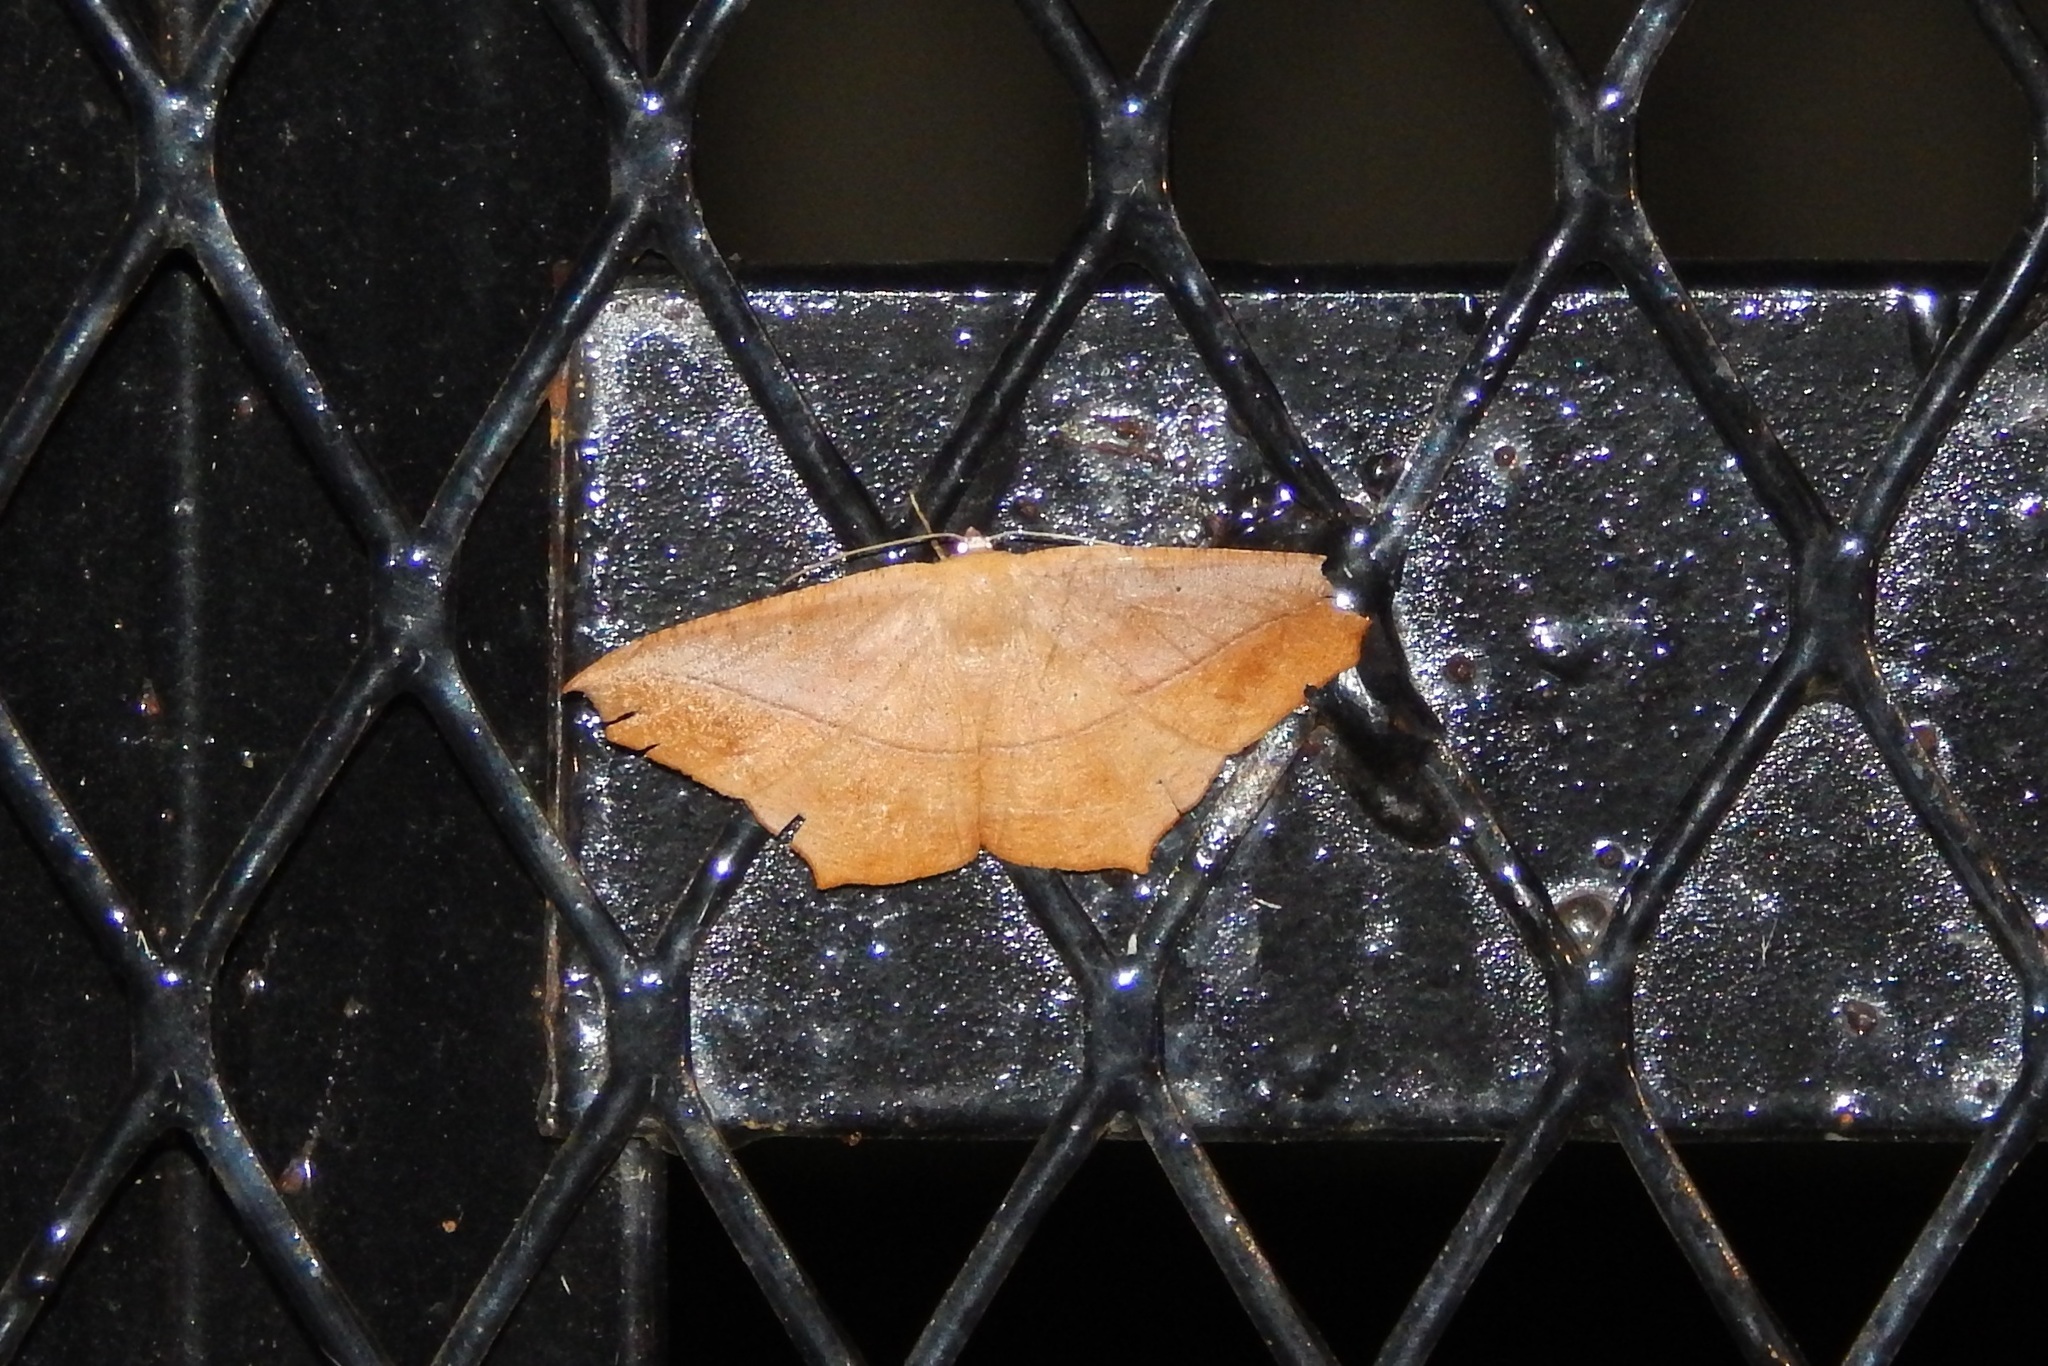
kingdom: Animalia
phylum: Arthropoda
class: Insecta
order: Lepidoptera
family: Geometridae
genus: Prochoerodes
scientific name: Prochoerodes lineola
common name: Large maple spanworm
